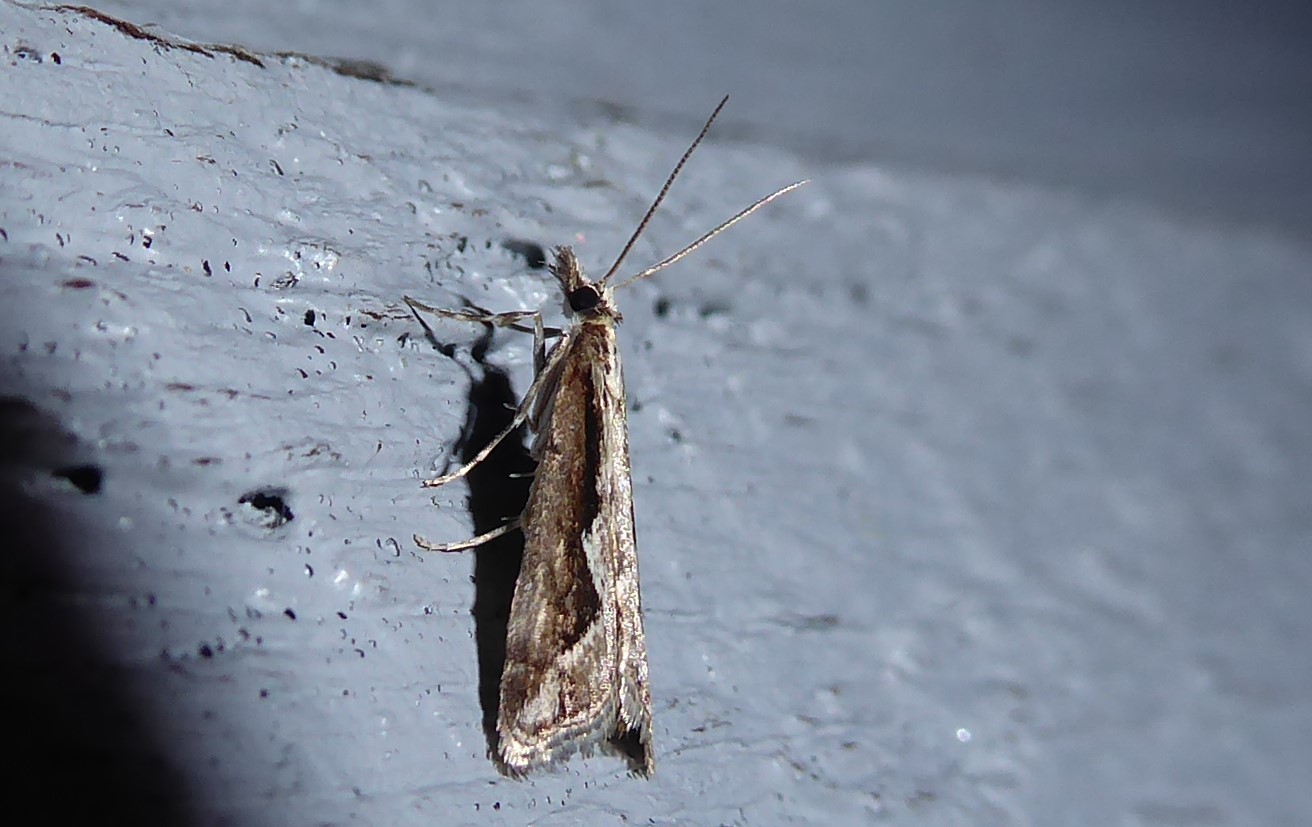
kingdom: Animalia
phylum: Arthropoda
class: Insecta
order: Lepidoptera
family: Crambidae
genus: Eudonia
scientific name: Eudonia steropaea
